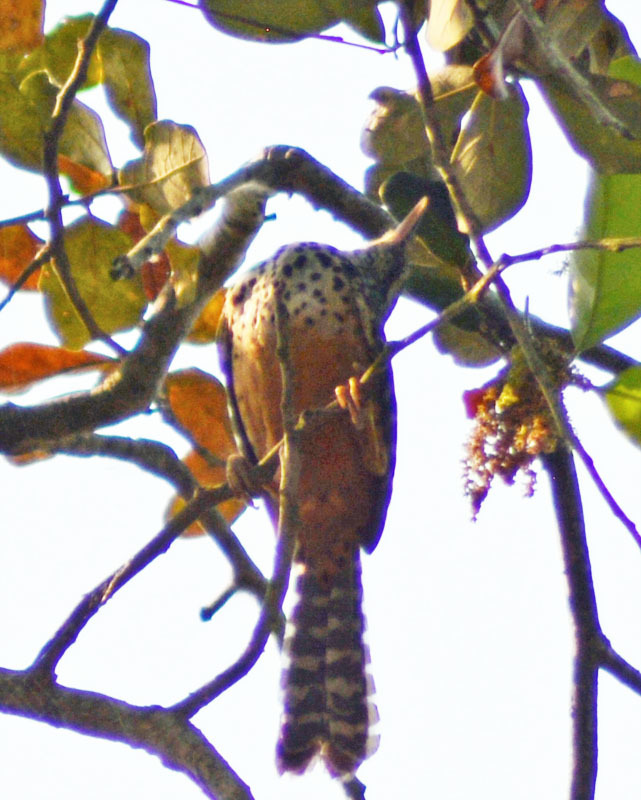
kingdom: Animalia
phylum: Chordata
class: Aves
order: Passeriformes
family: Troglodytidae
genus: Campylorhynchus
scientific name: Campylorhynchus zonatus
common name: Band-backed wren
